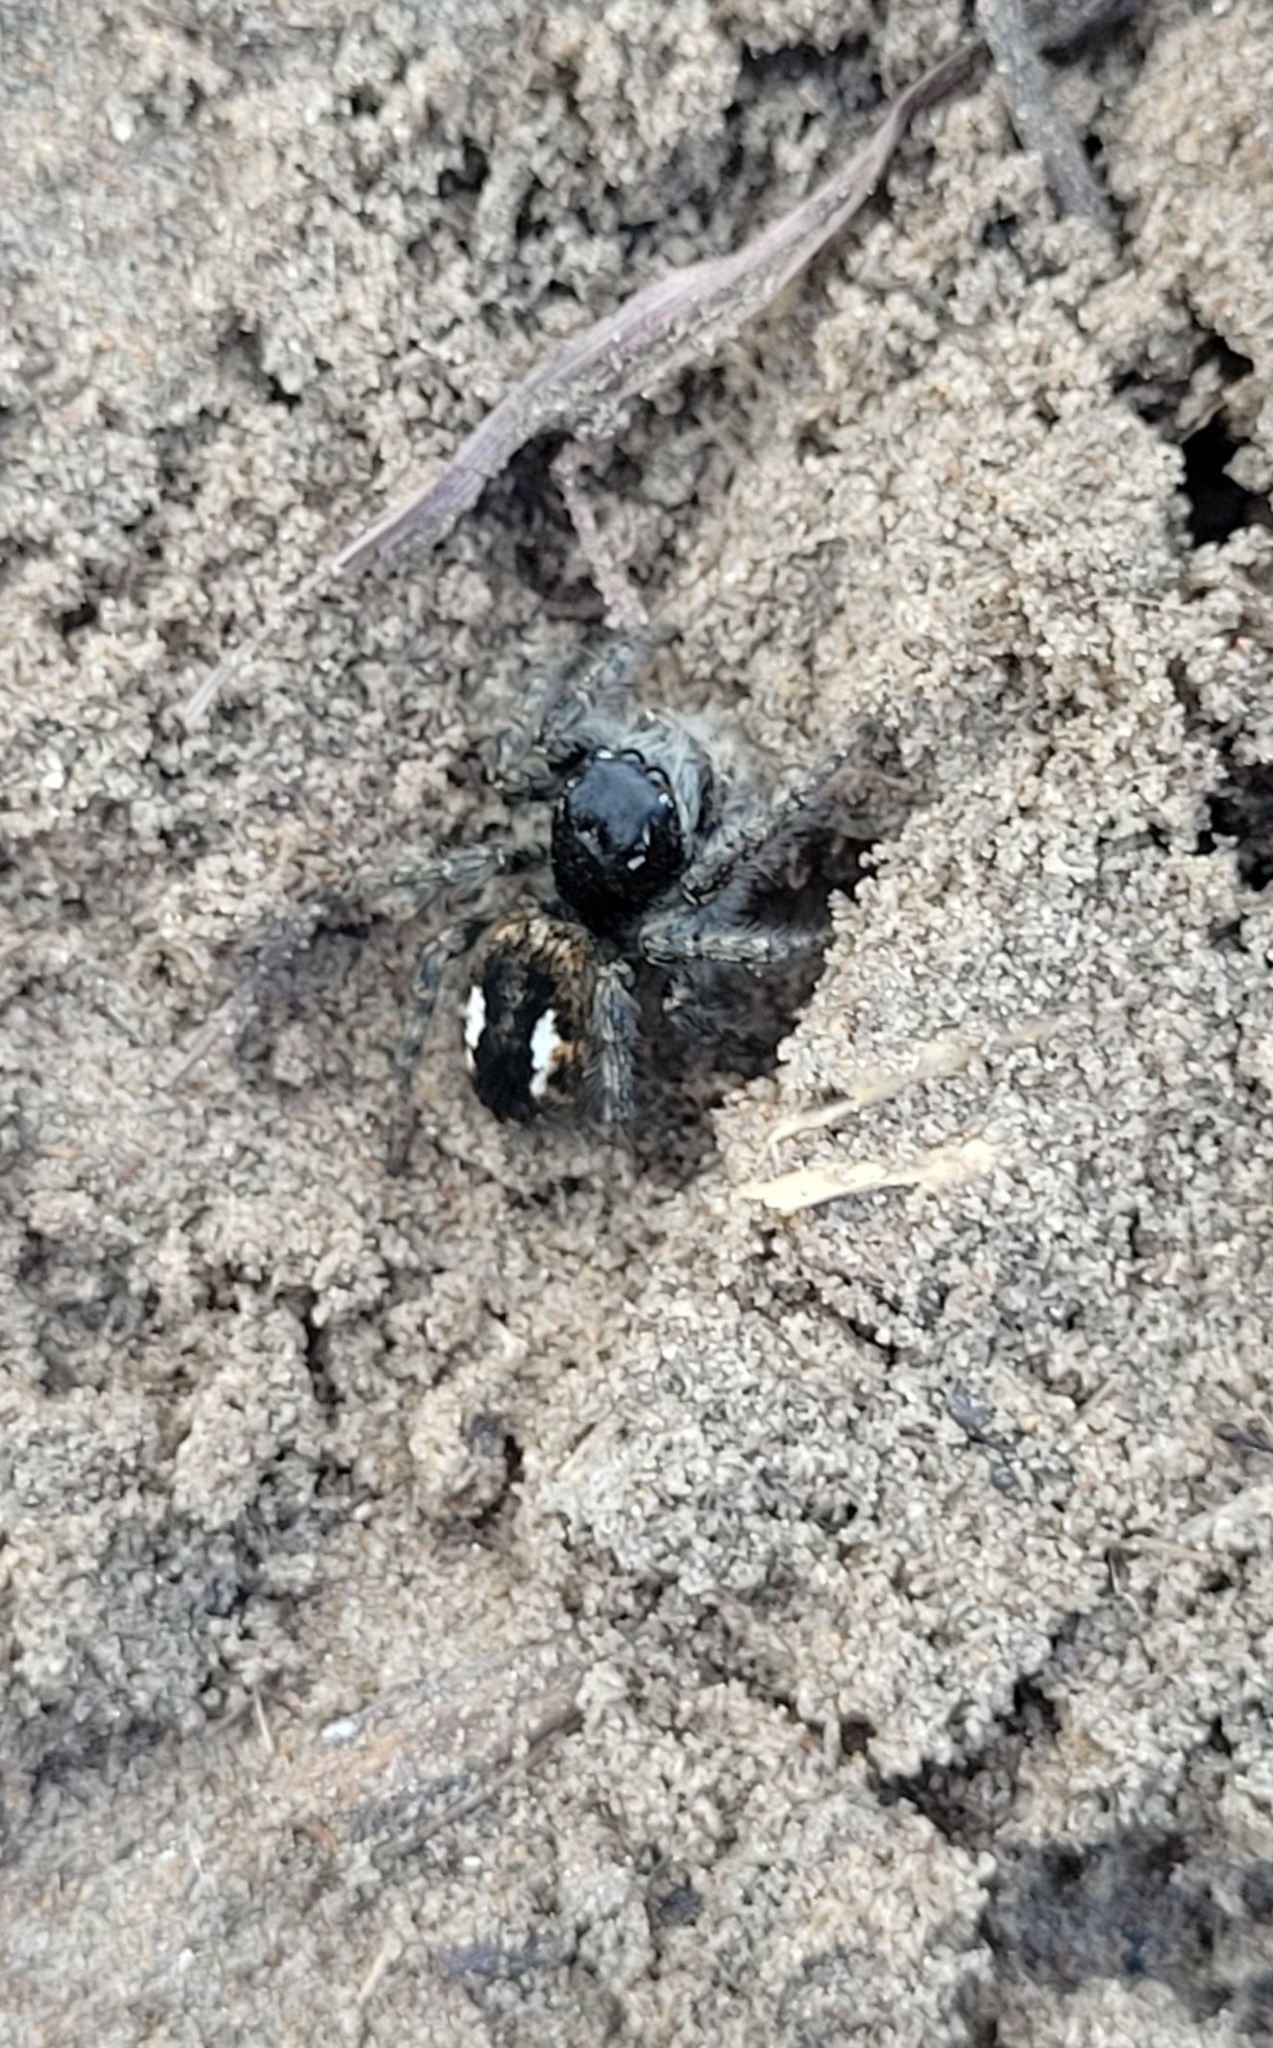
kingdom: Animalia
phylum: Arthropoda
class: Arachnida
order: Araneae
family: Salticidae
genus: Philaeus
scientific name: Philaeus chrysops
